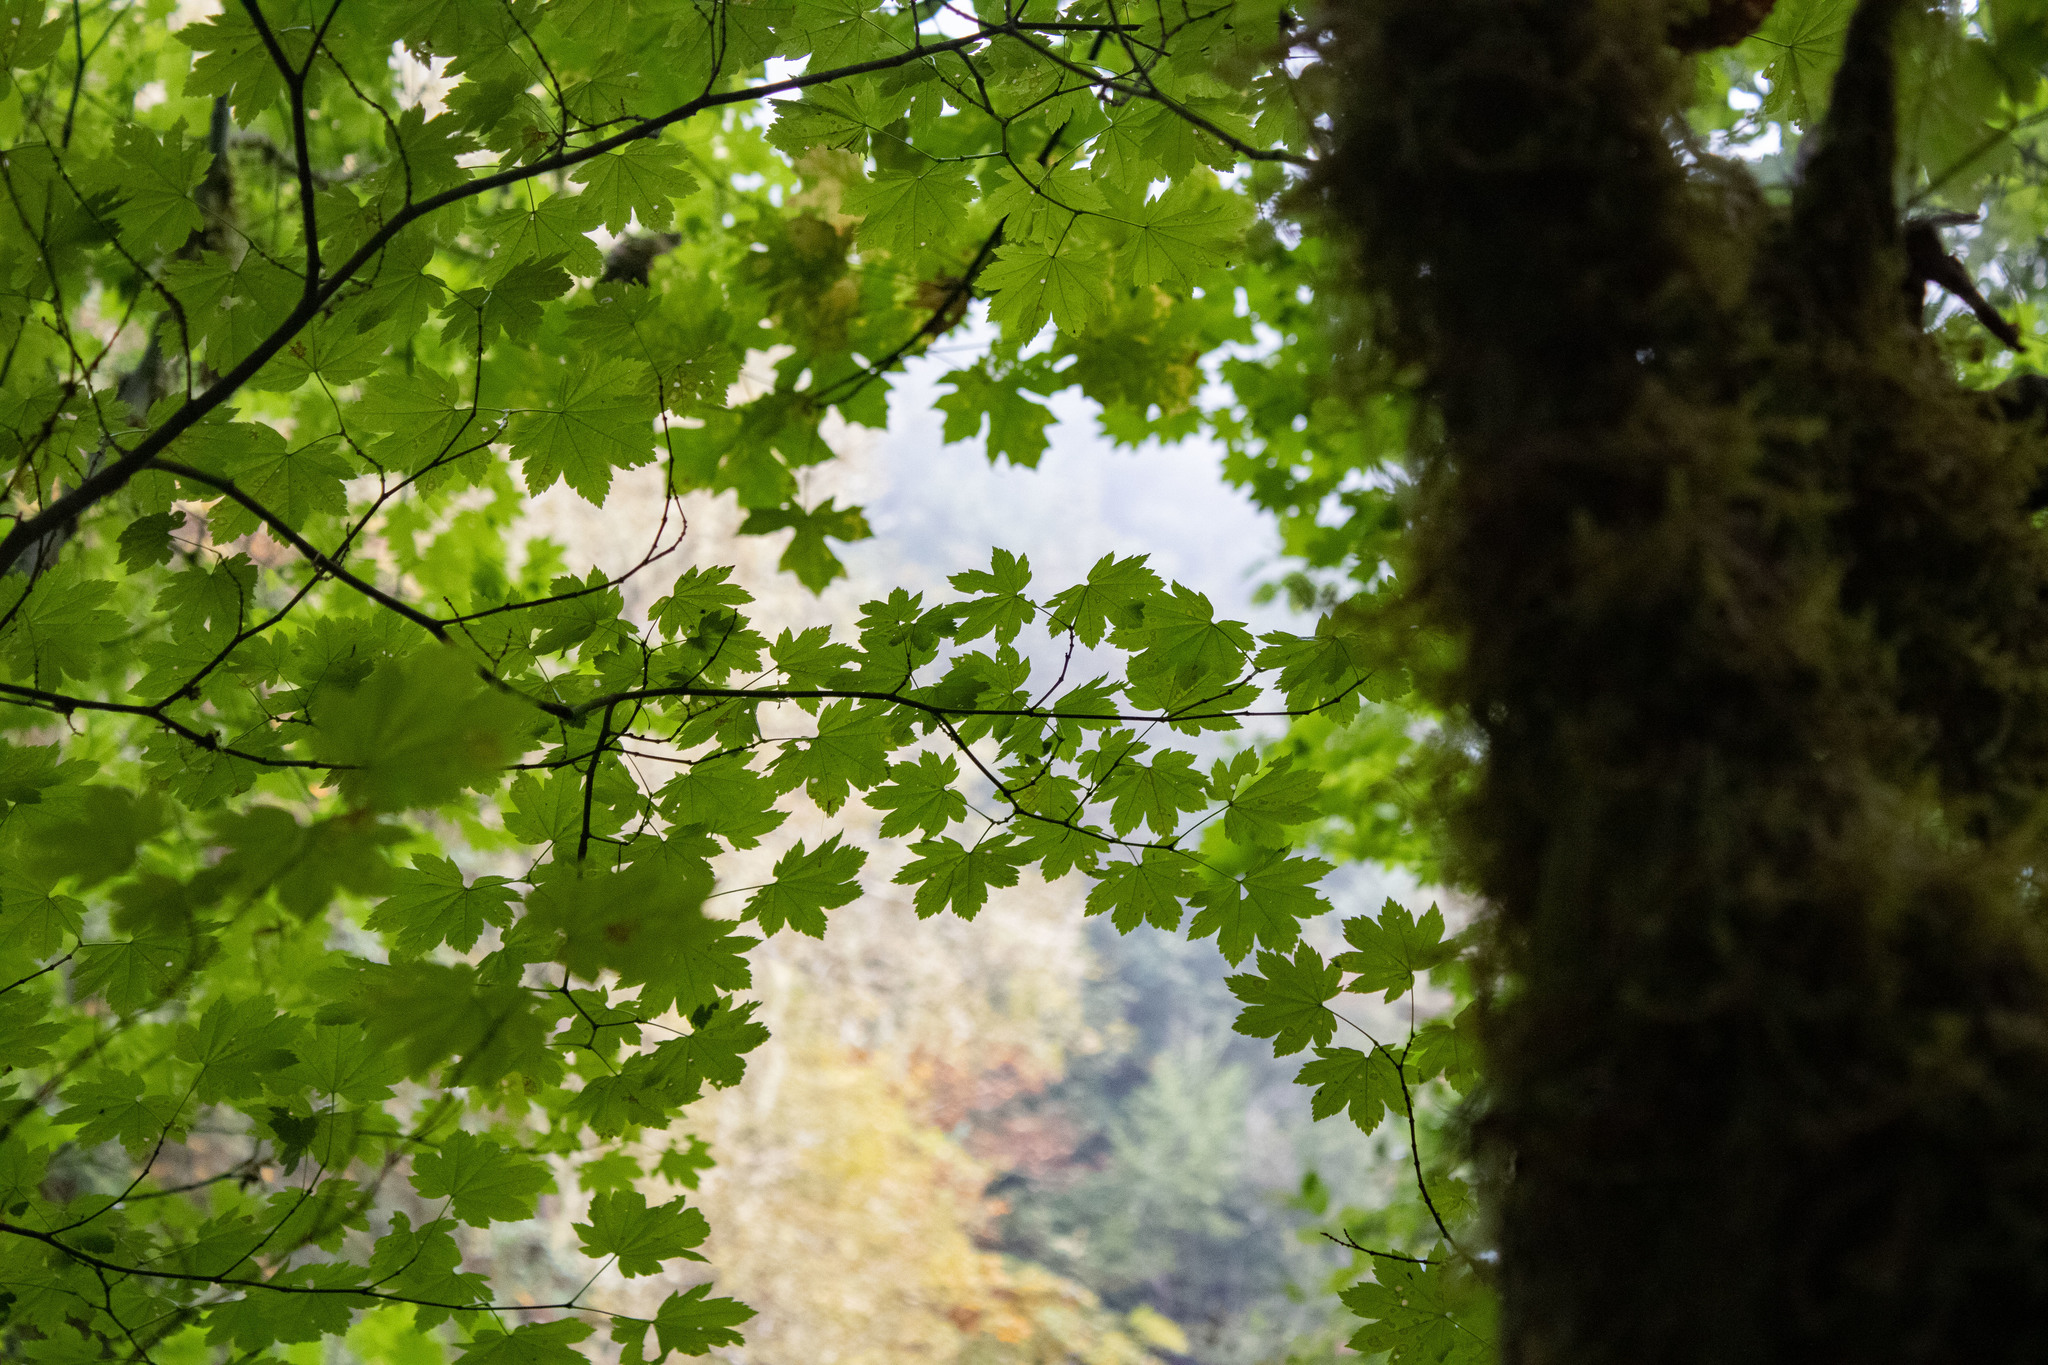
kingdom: Plantae
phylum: Tracheophyta
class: Magnoliopsida
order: Sapindales
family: Sapindaceae
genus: Acer
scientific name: Acer circinatum
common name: Vine maple
